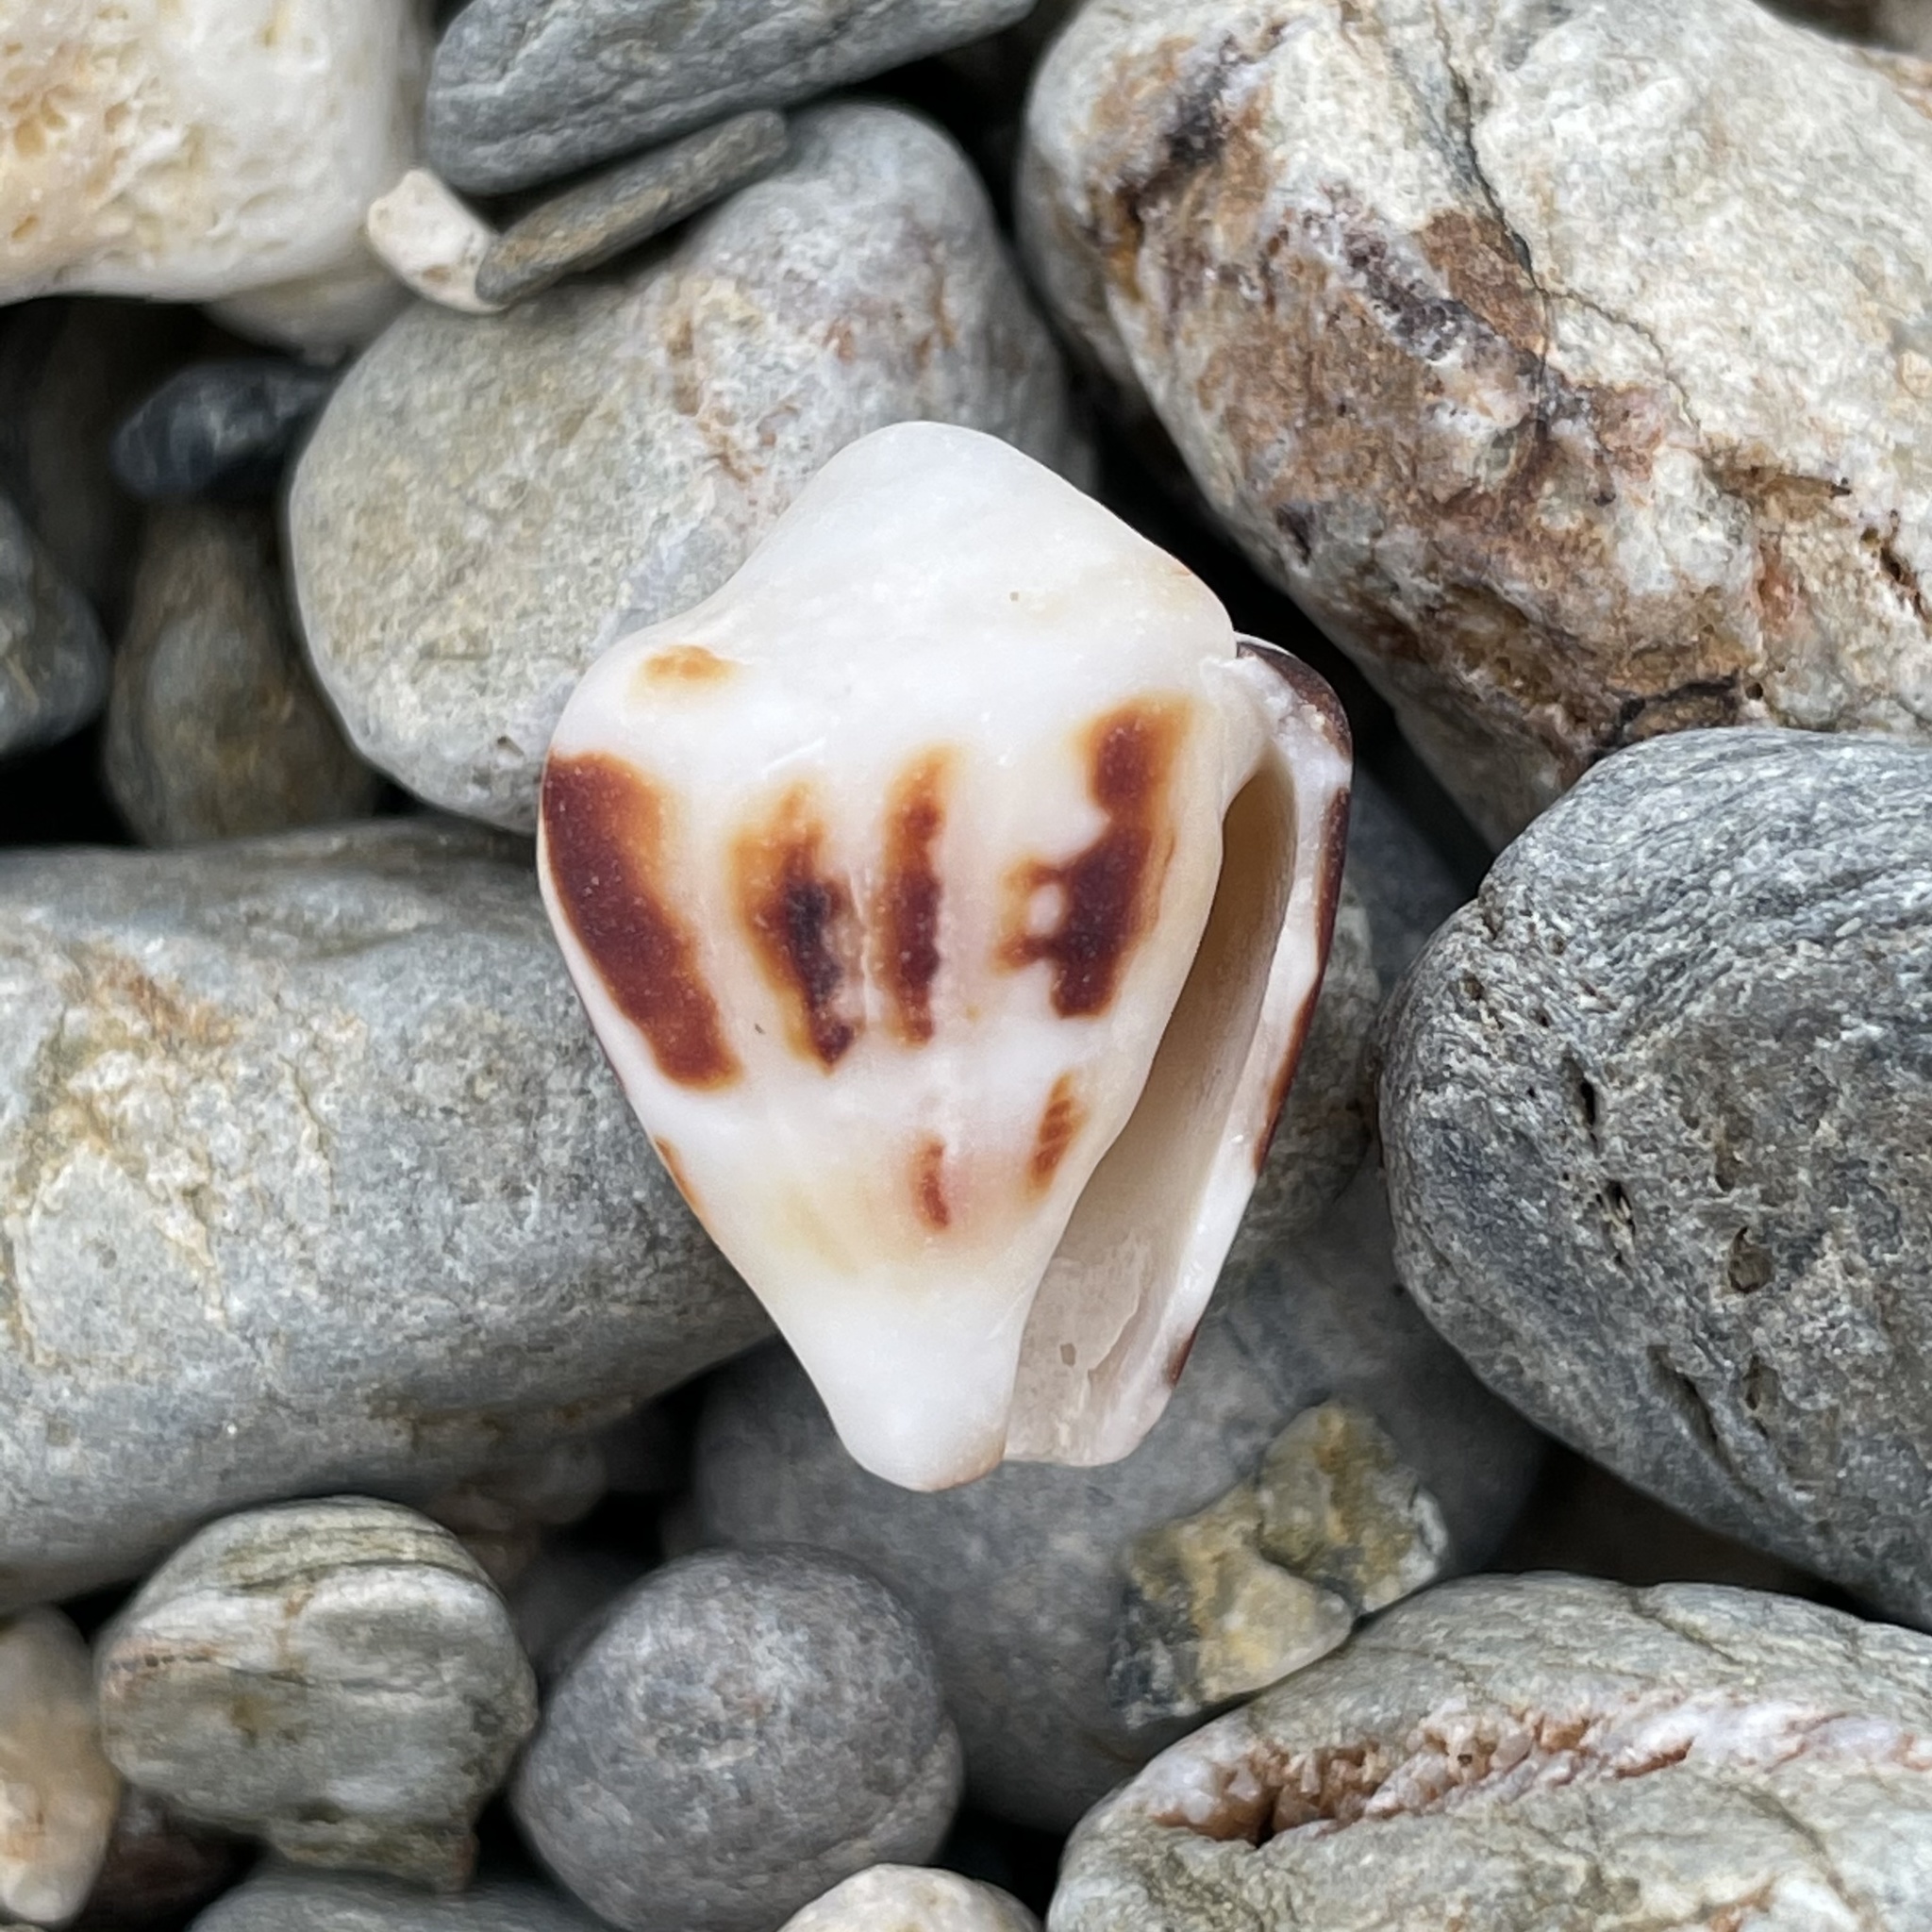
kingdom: Animalia
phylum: Mollusca
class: Gastropoda
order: Neogastropoda
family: Conidae
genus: Conus
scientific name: Conus chaldaeus
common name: Astrologer's cone
